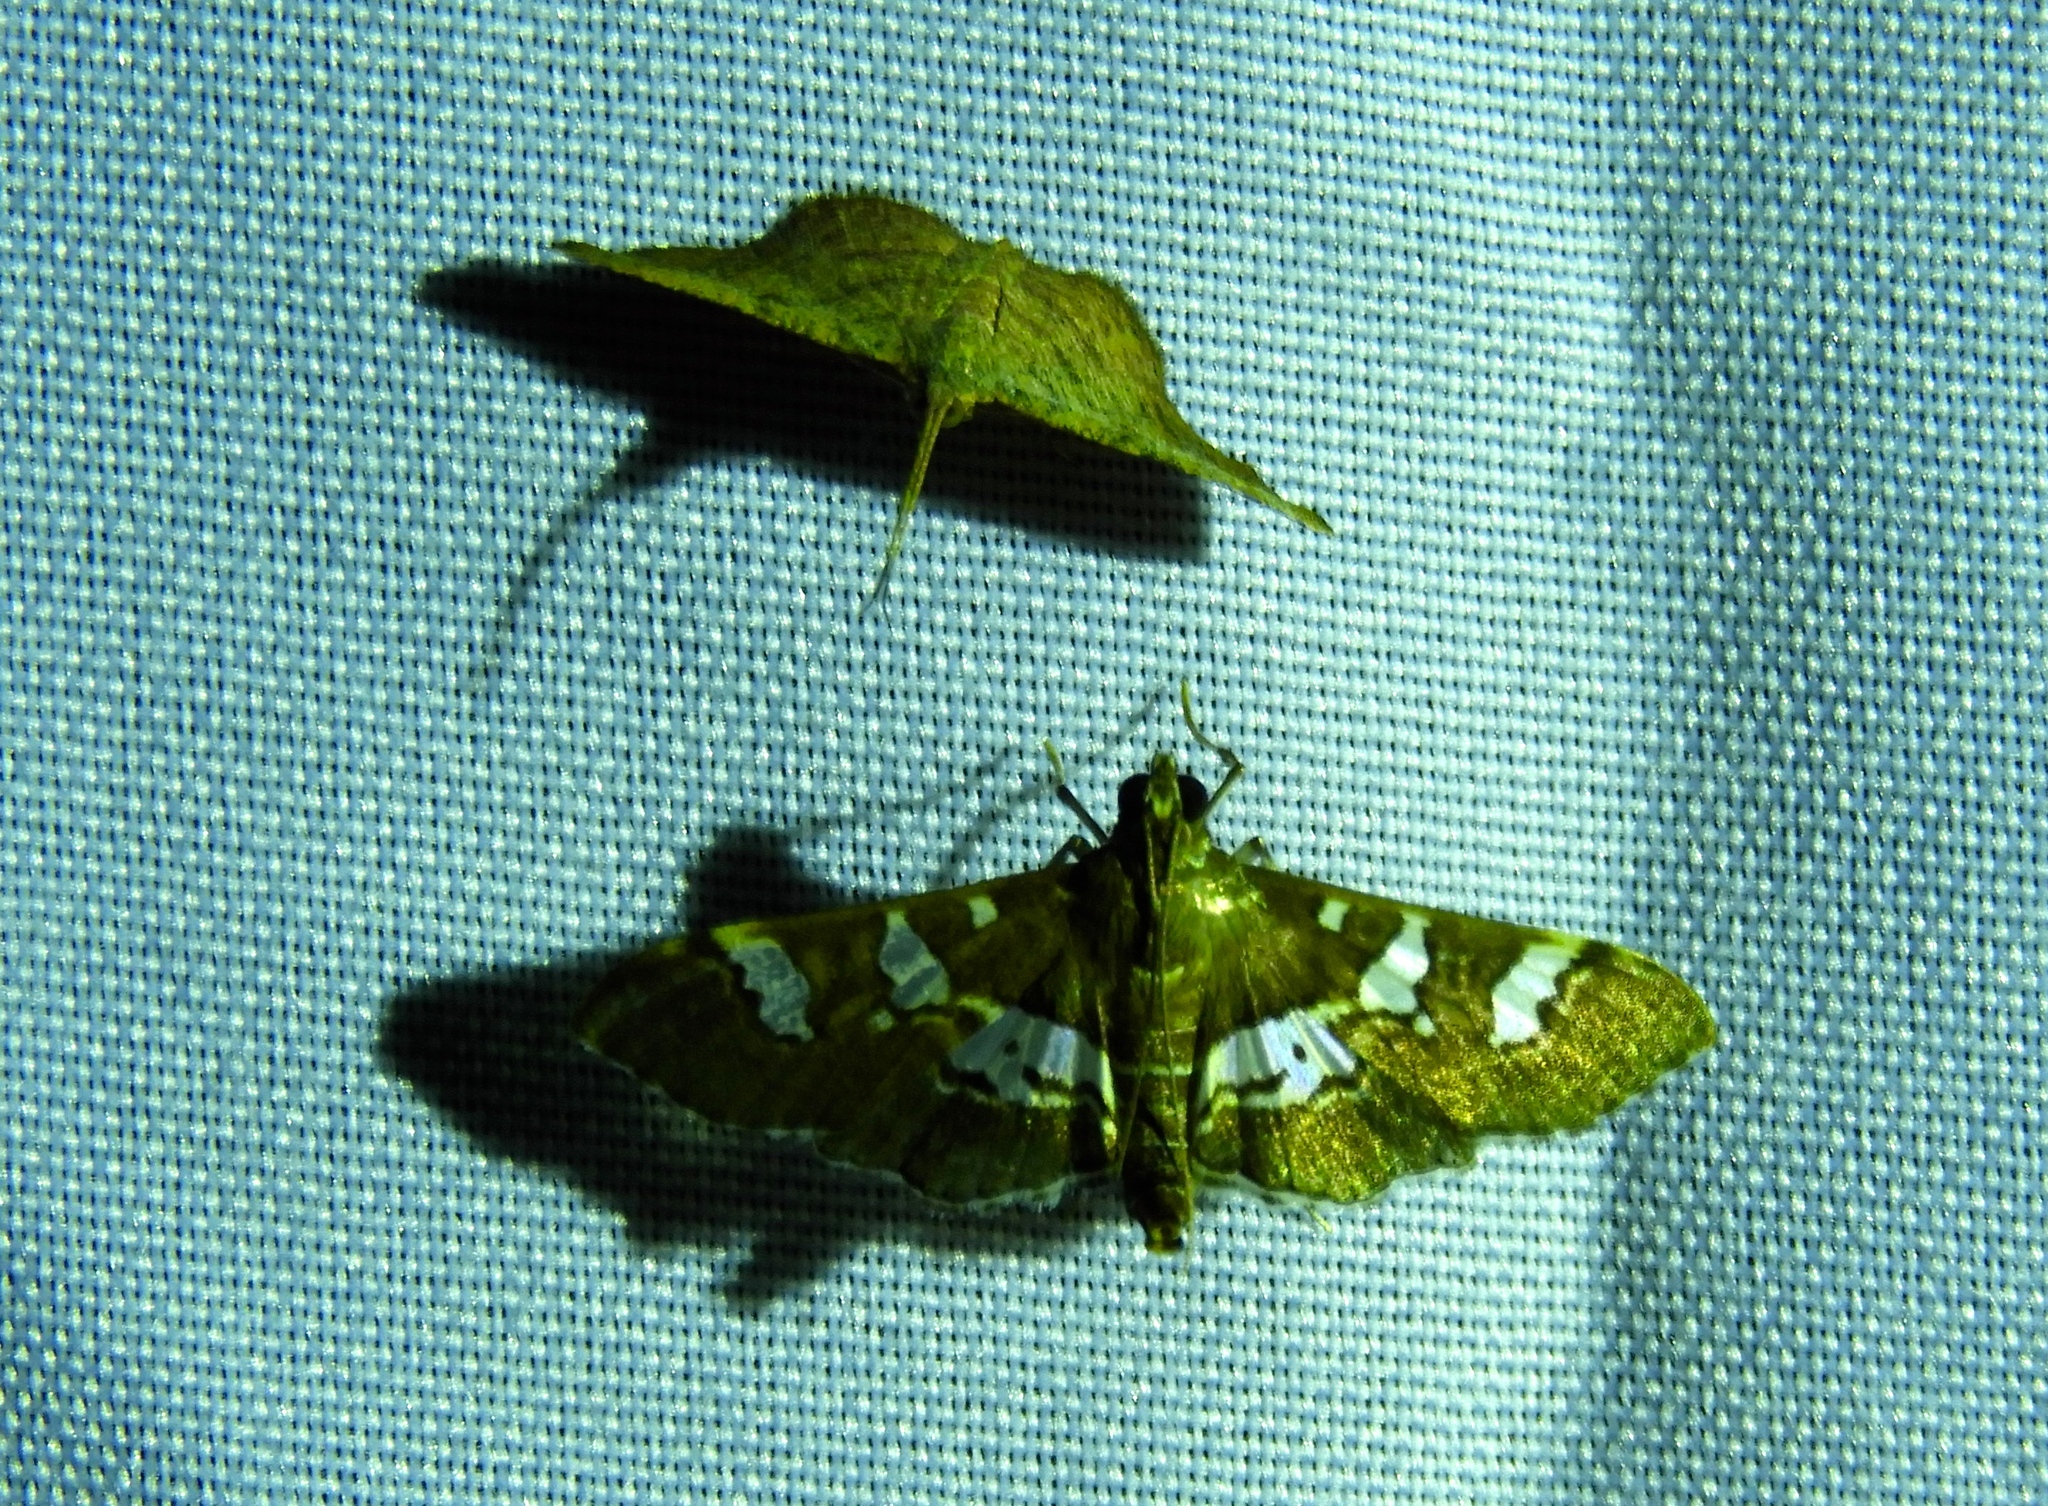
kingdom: Animalia
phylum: Arthropoda
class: Insecta
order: Lepidoptera
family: Crambidae
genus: Desmia
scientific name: Desmia ufeus
